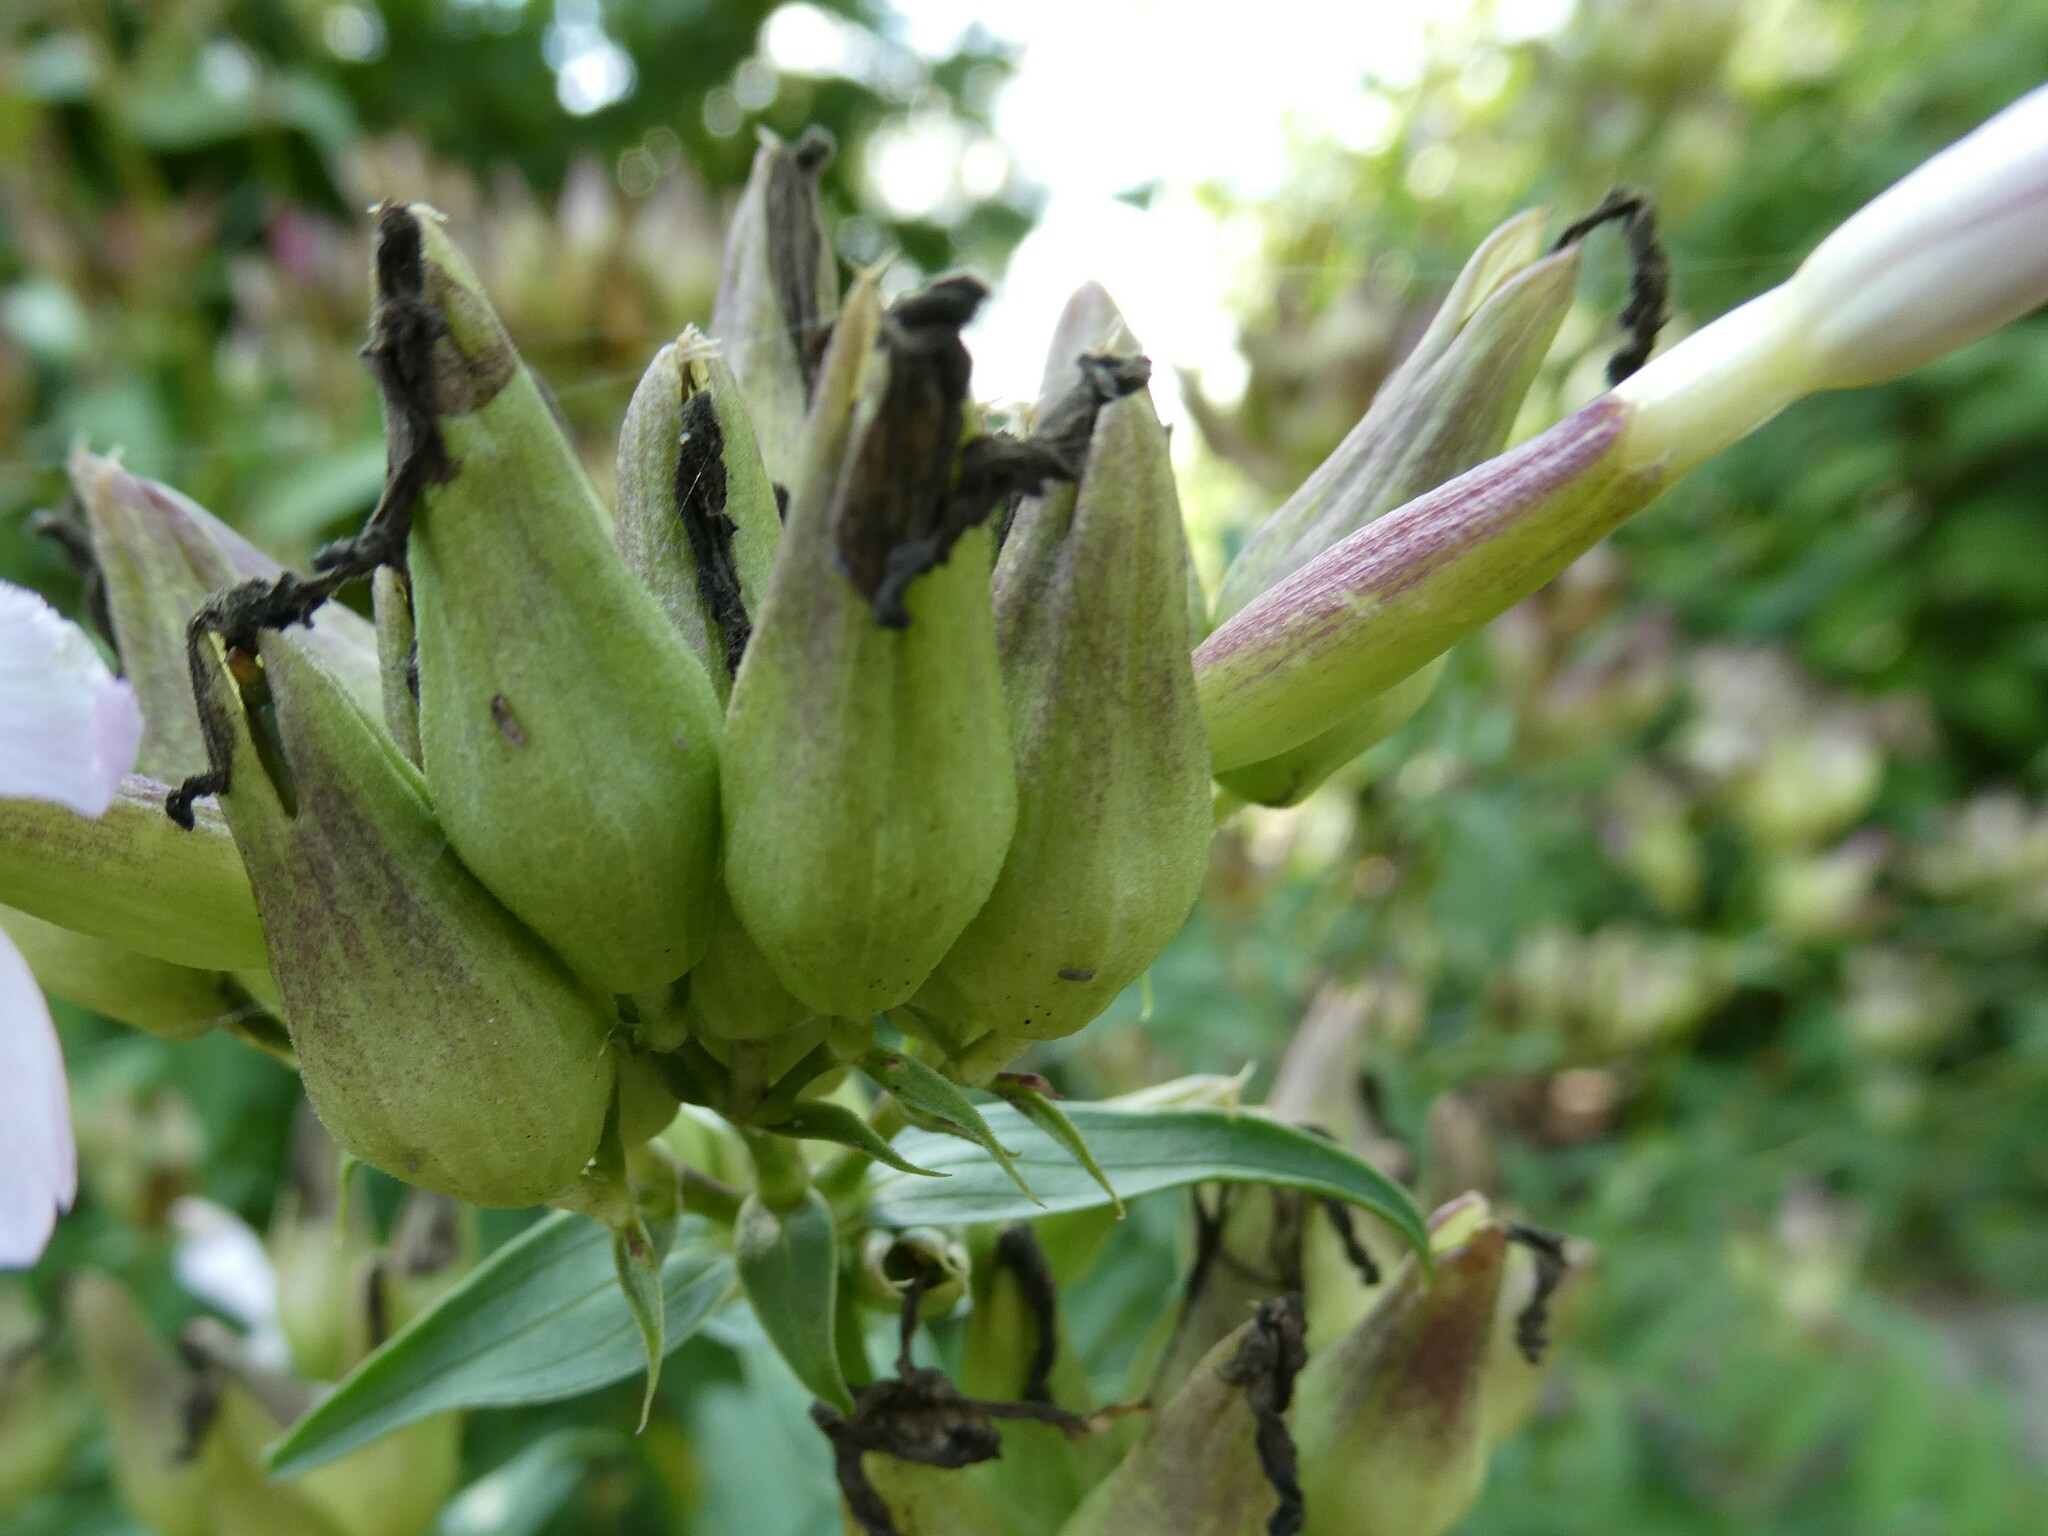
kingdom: Plantae
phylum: Tracheophyta
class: Magnoliopsida
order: Caryophyllales
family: Caryophyllaceae
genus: Saponaria
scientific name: Saponaria officinalis
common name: Soapwort
